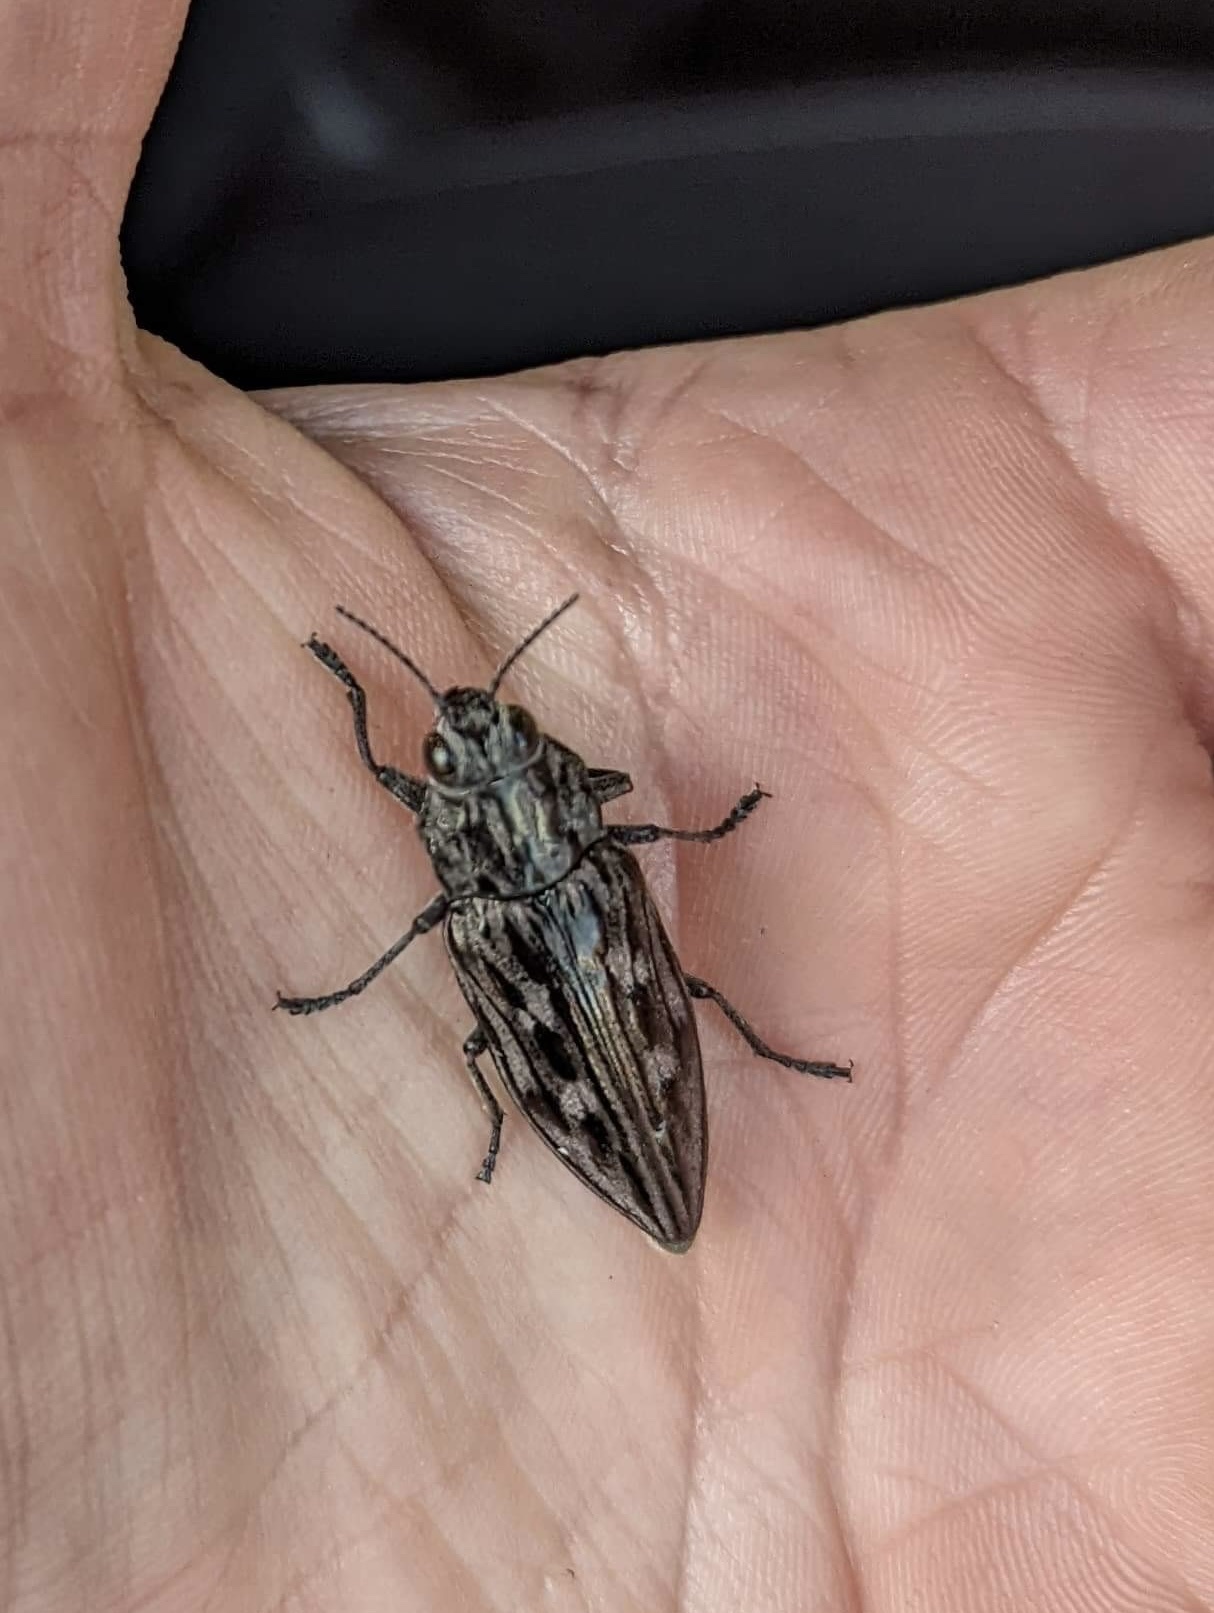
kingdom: Animalia
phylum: Arthropoda
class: Insecta
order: Coleoptera
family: Buprestidae
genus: Chalcophora
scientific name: Chalcophora angulicollis
